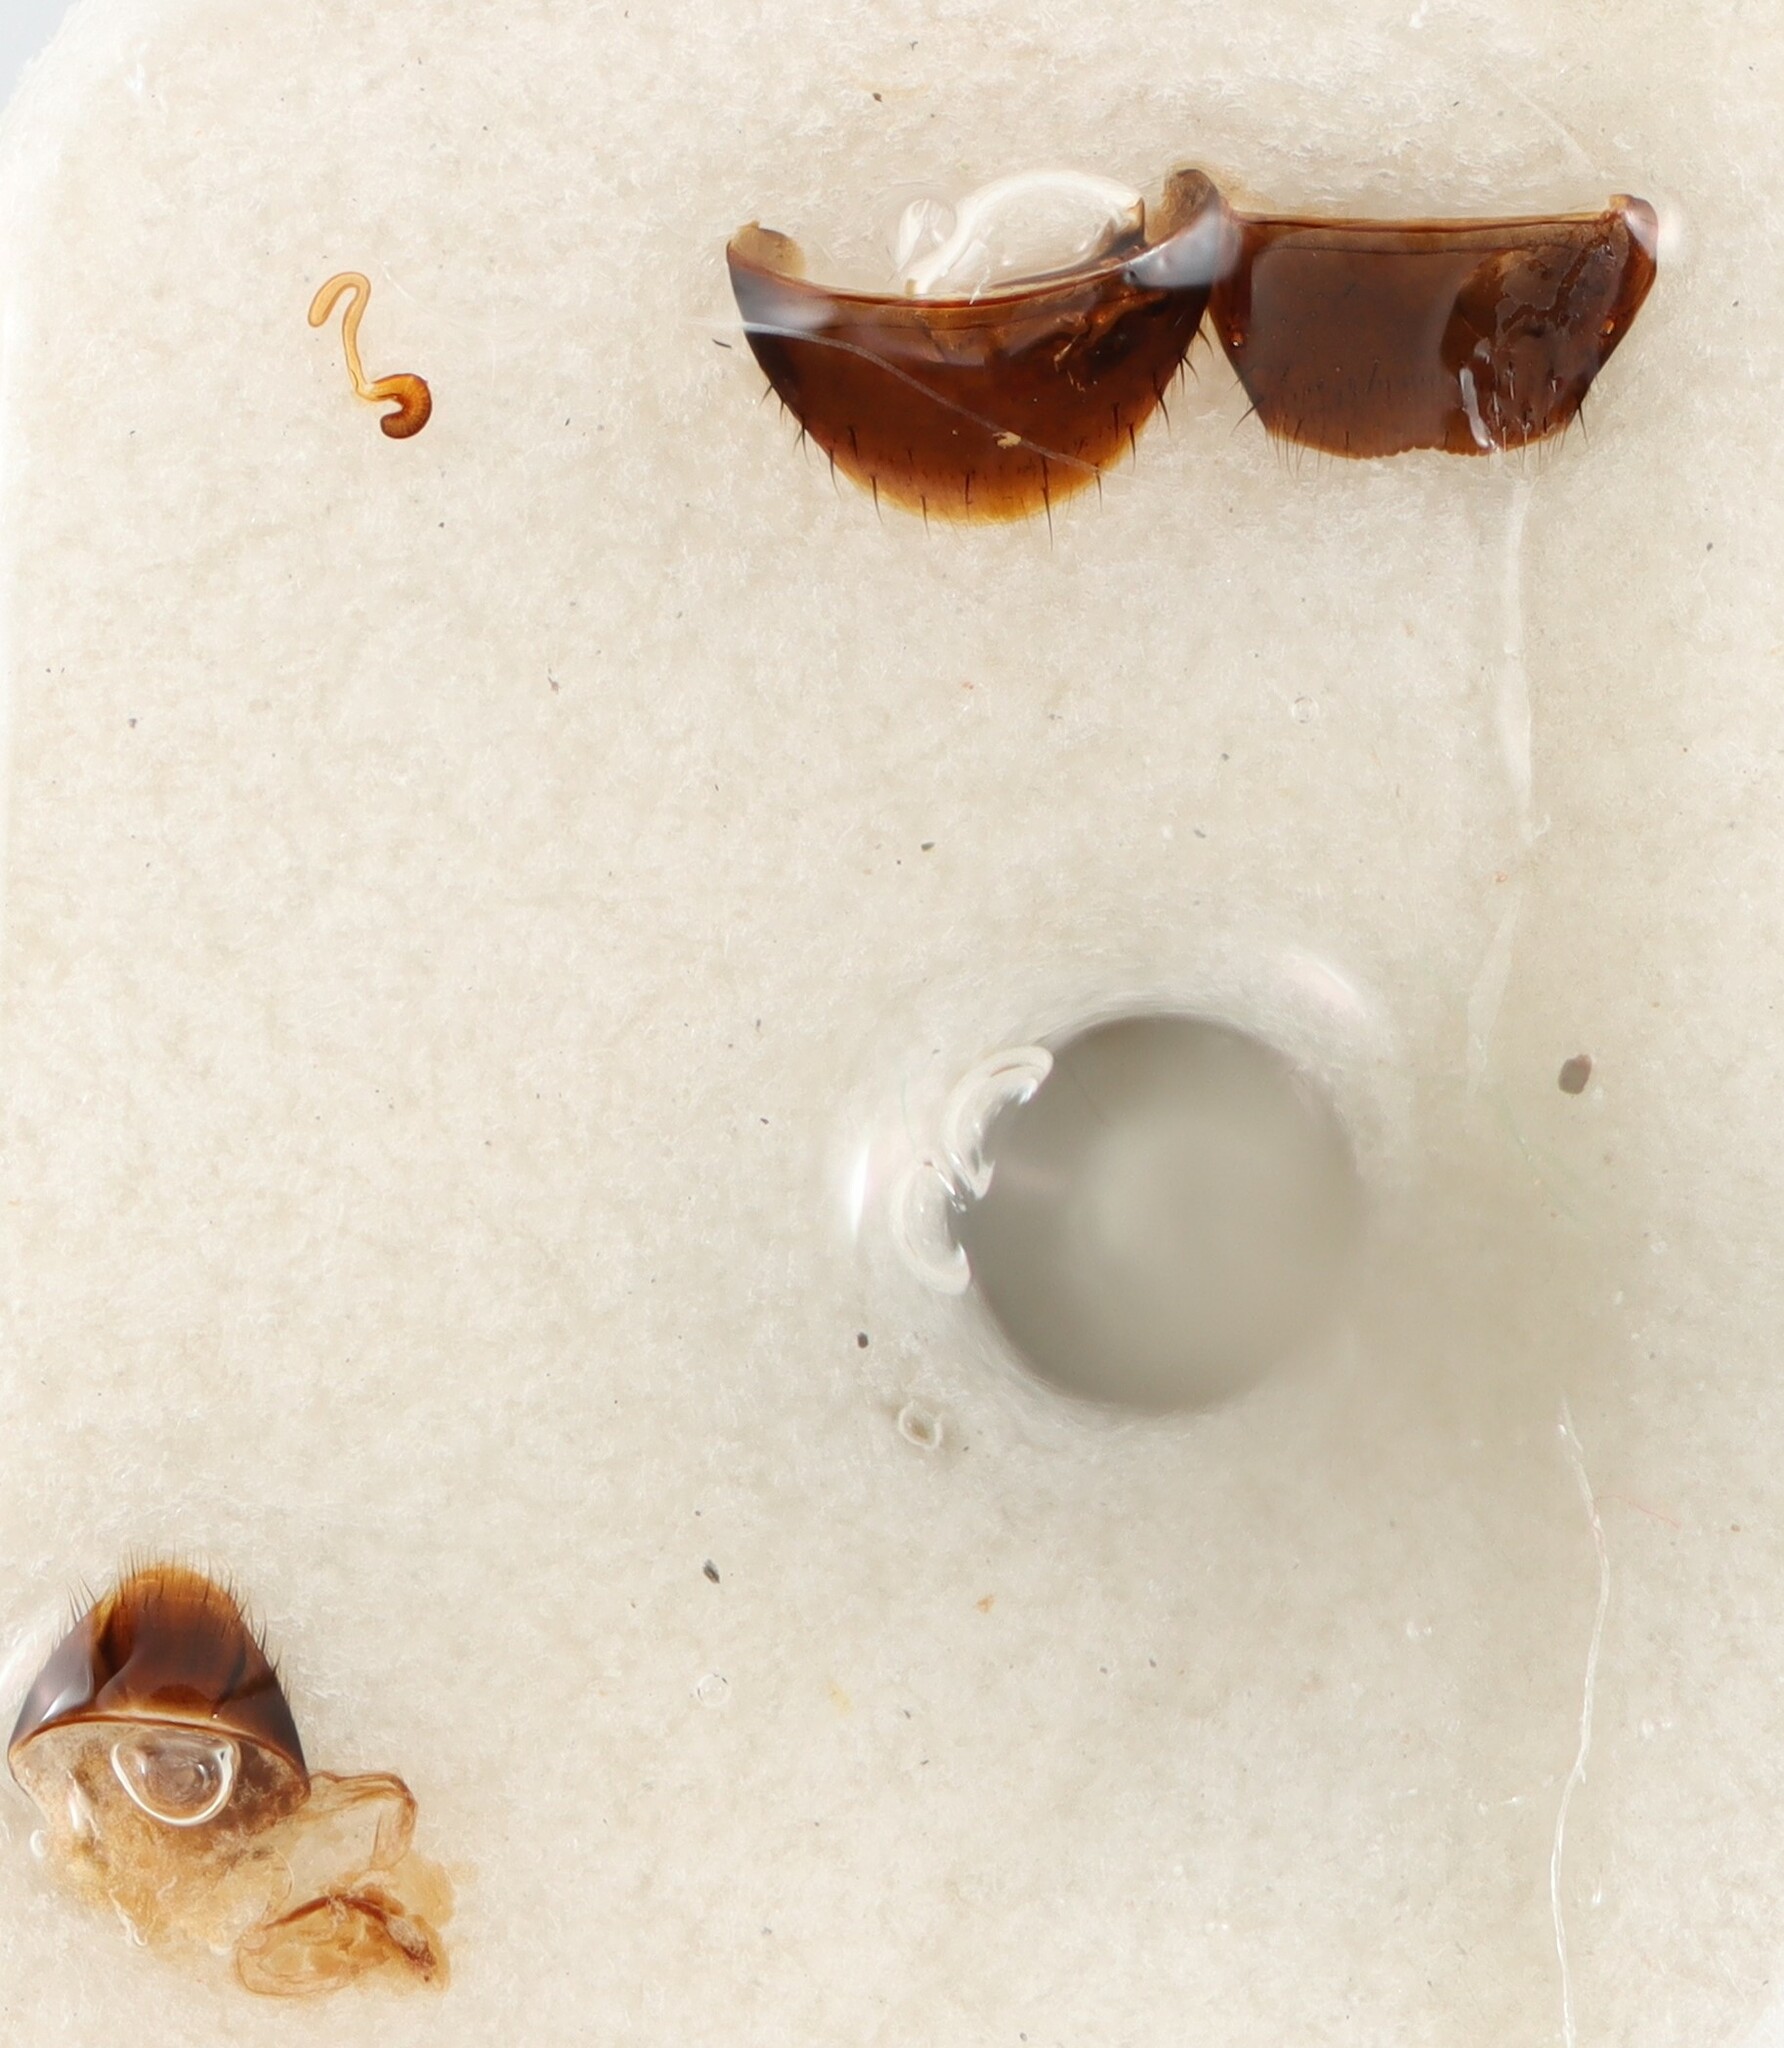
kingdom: Animalia
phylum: Arthropoda
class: Insecta
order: Coleoptera
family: Staphylinidae
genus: Pella
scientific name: Pella schmitti
